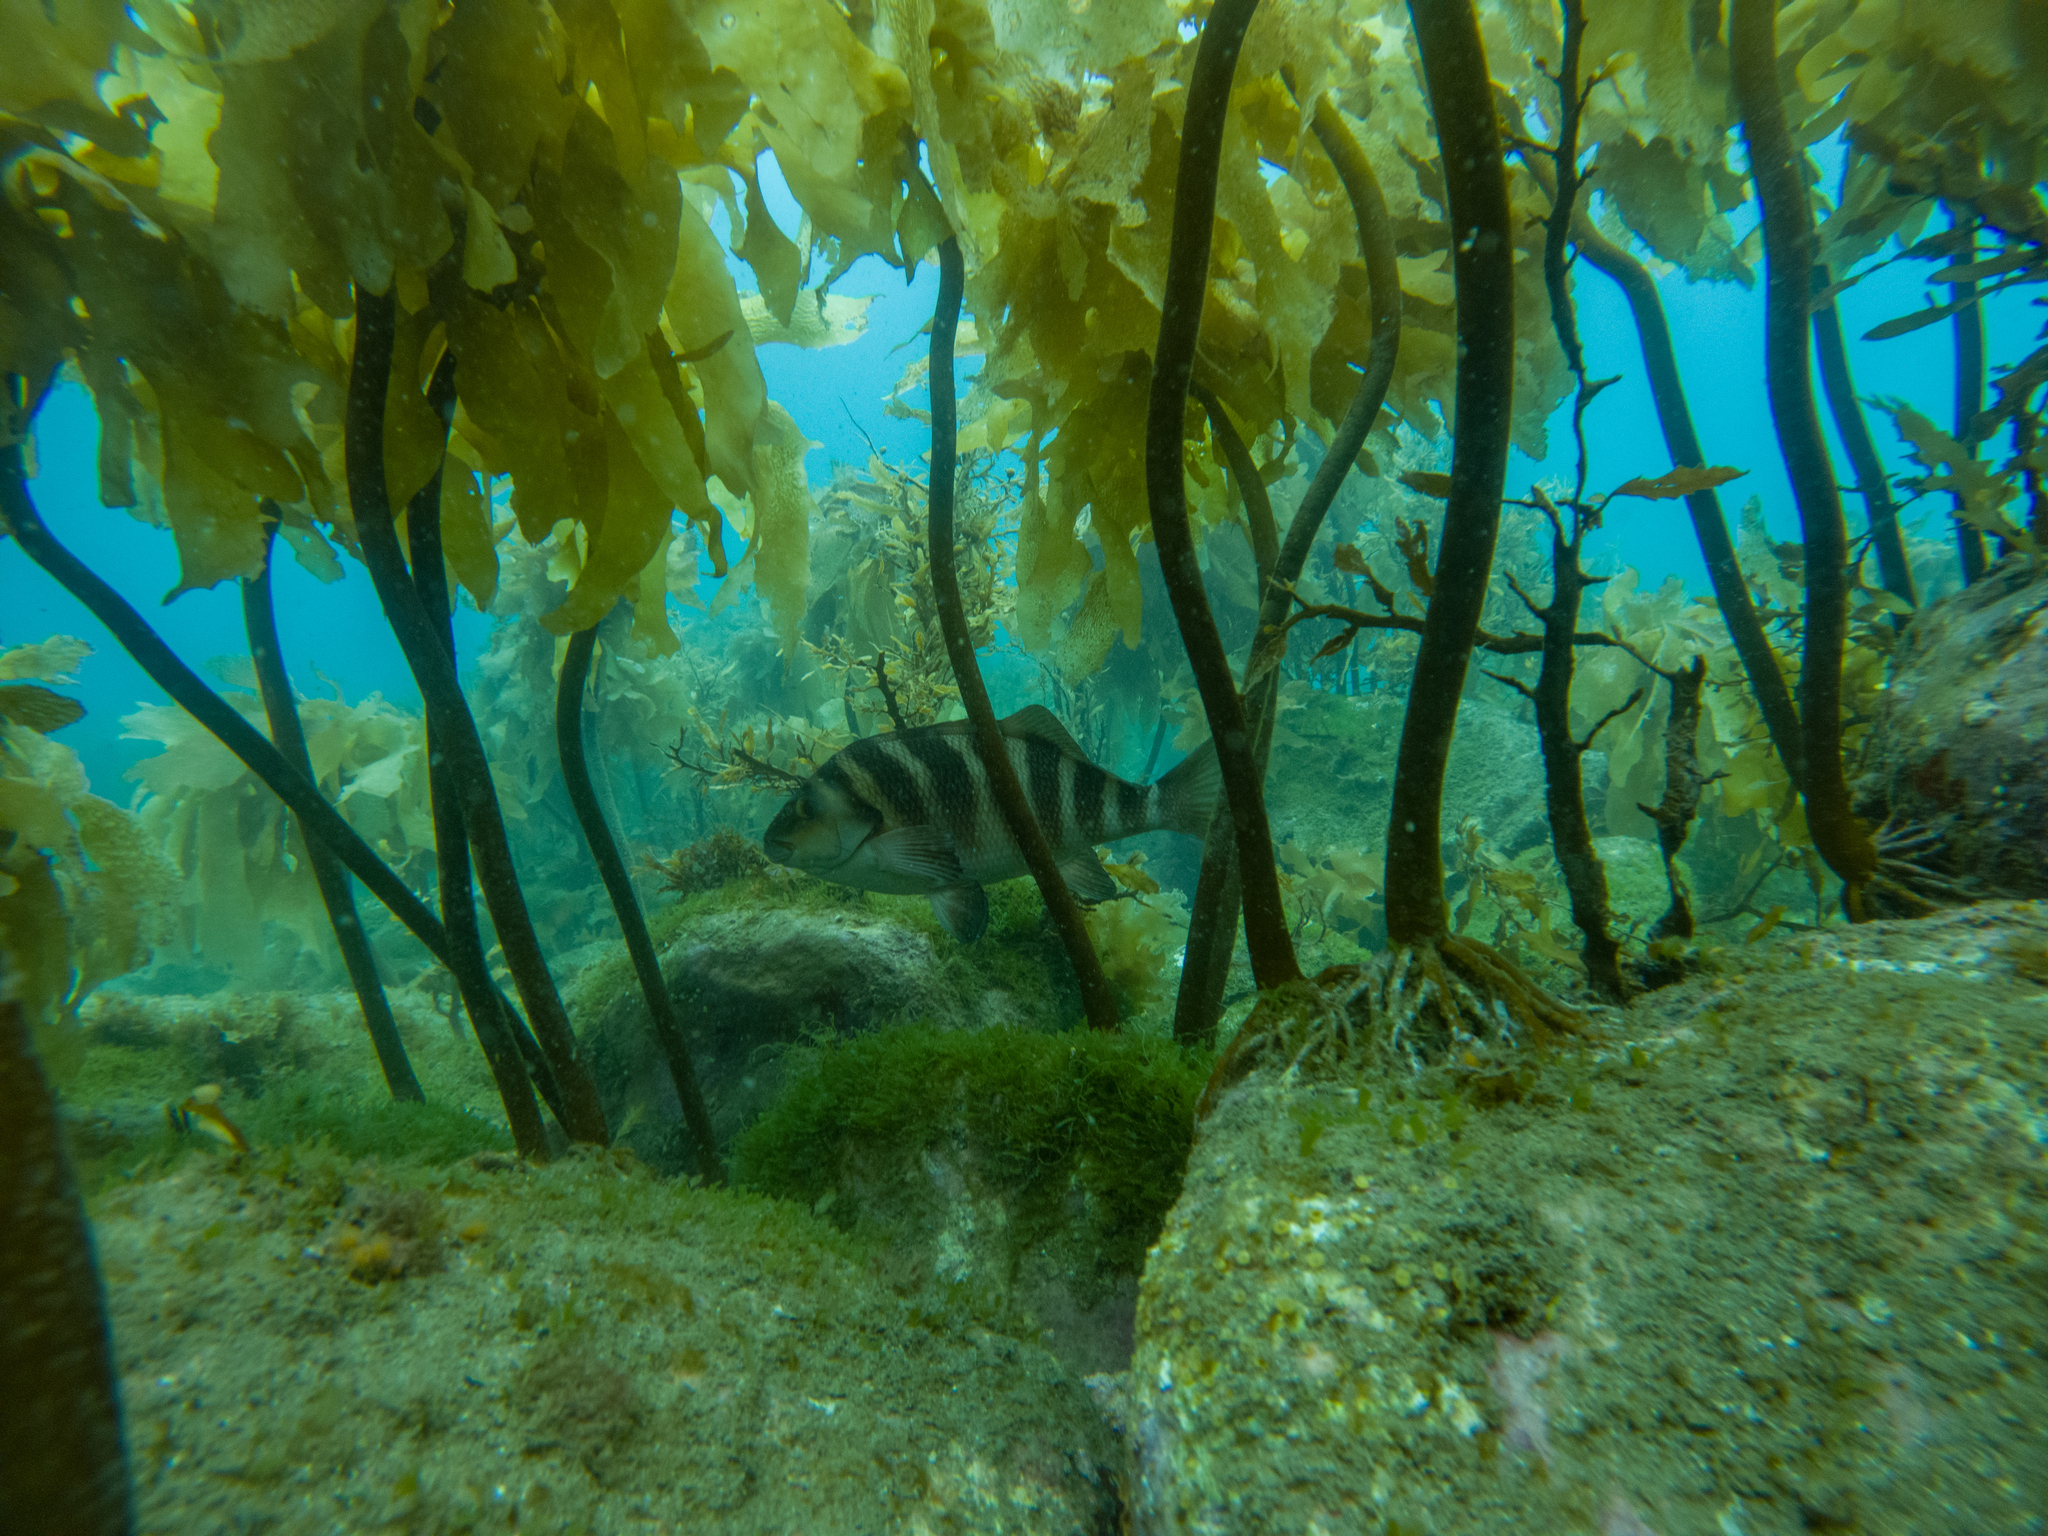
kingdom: Animalia
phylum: Chordata
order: Perciformes
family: Cheilodactylidae
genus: Cheilodactylus
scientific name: Cheilodactylus spectabilis
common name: Red moki
